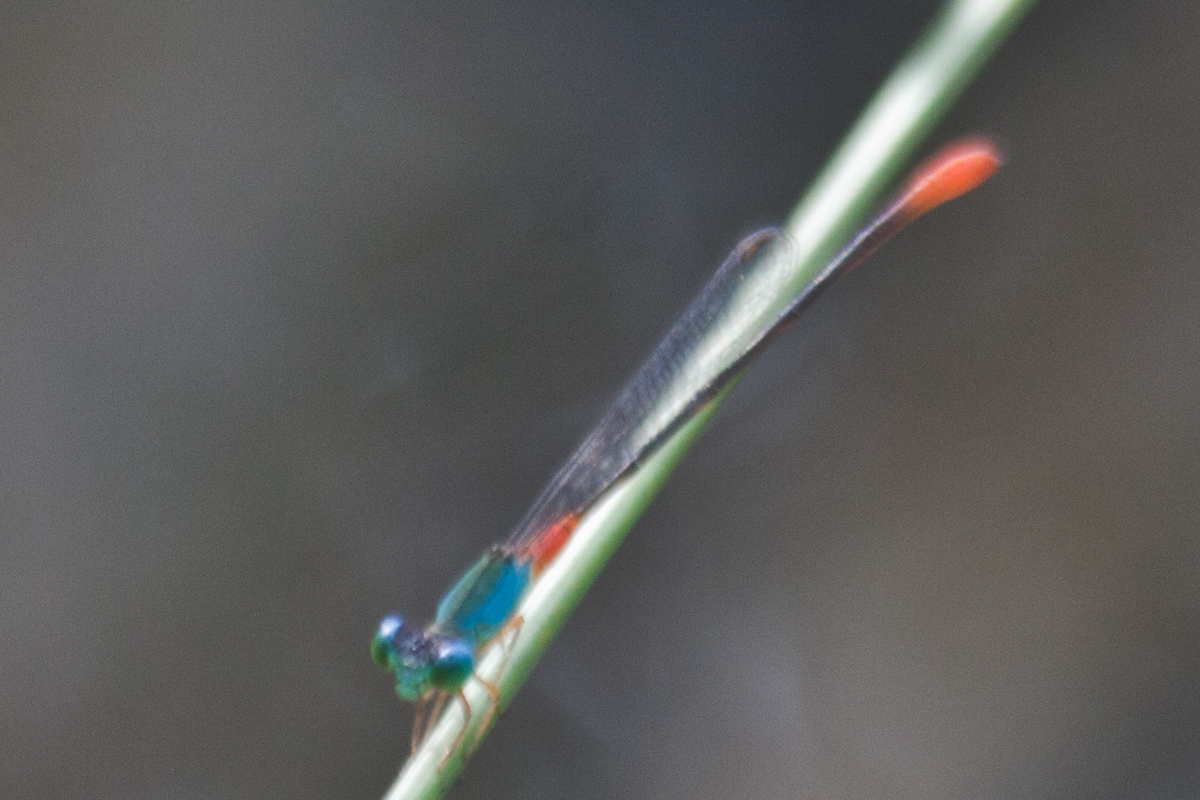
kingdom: Animalia
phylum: Arthropoda
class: Insecta
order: Odonata
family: Coenagrionidae
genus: Ceriagrion
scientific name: Ceriagrion cerinorubellum
